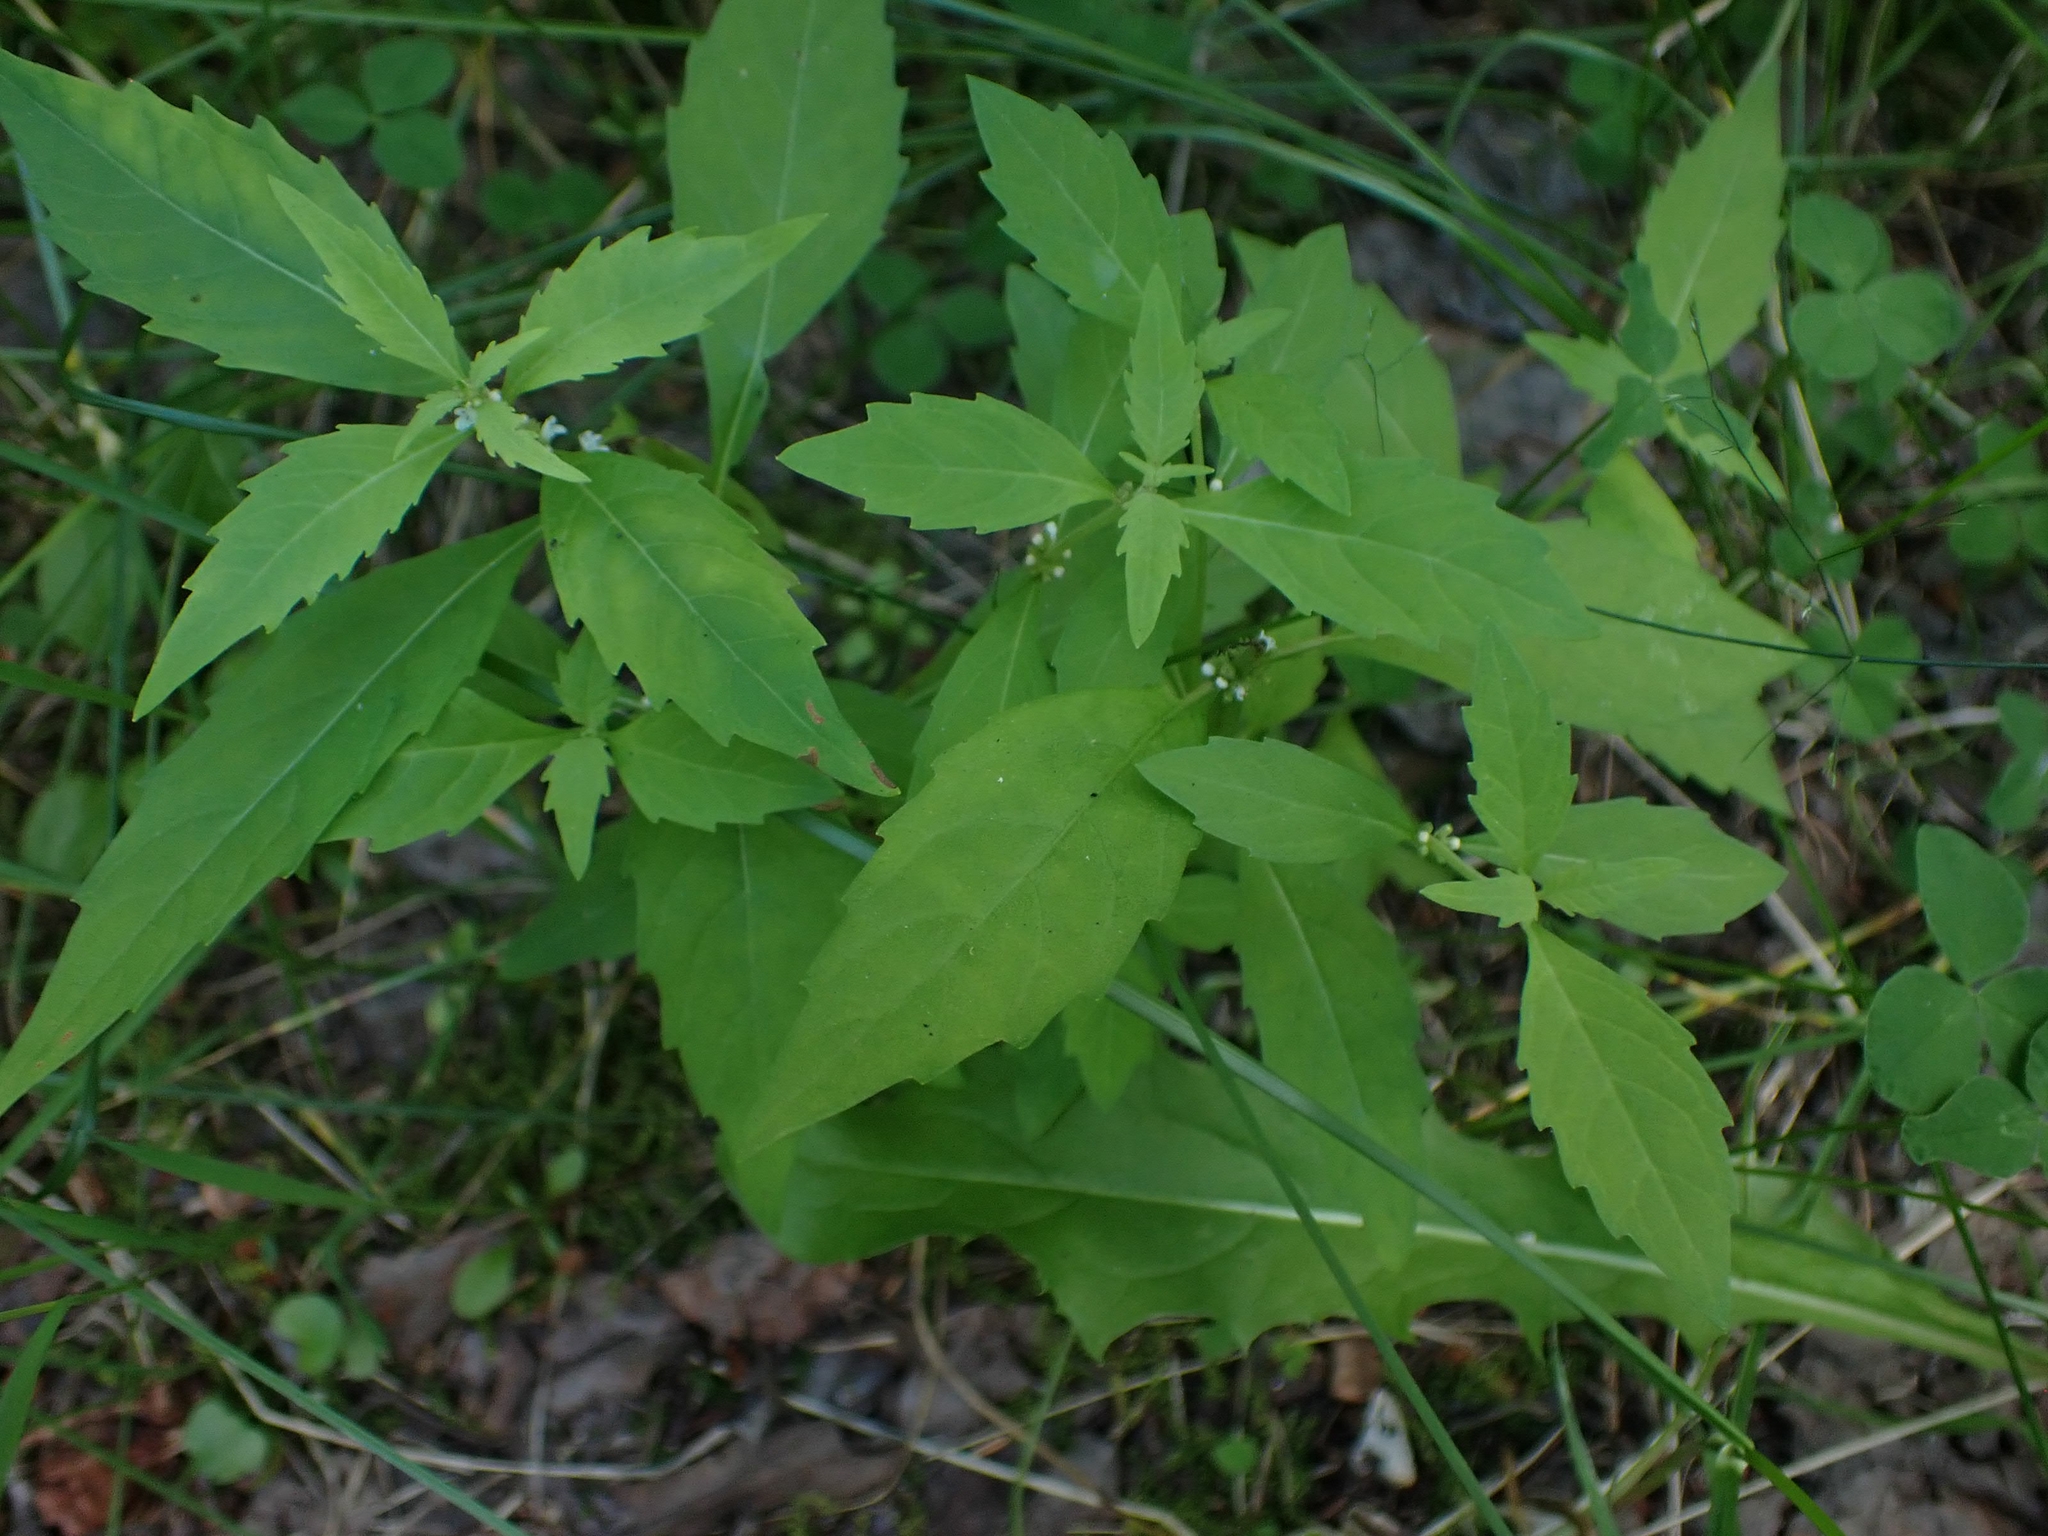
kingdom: Plantae
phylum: Tracheophyta
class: Magnoliopsida
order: Lamiales
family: Lamiaceae
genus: Lycopus
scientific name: Lycopus uniflorus
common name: Northern bugleweed
